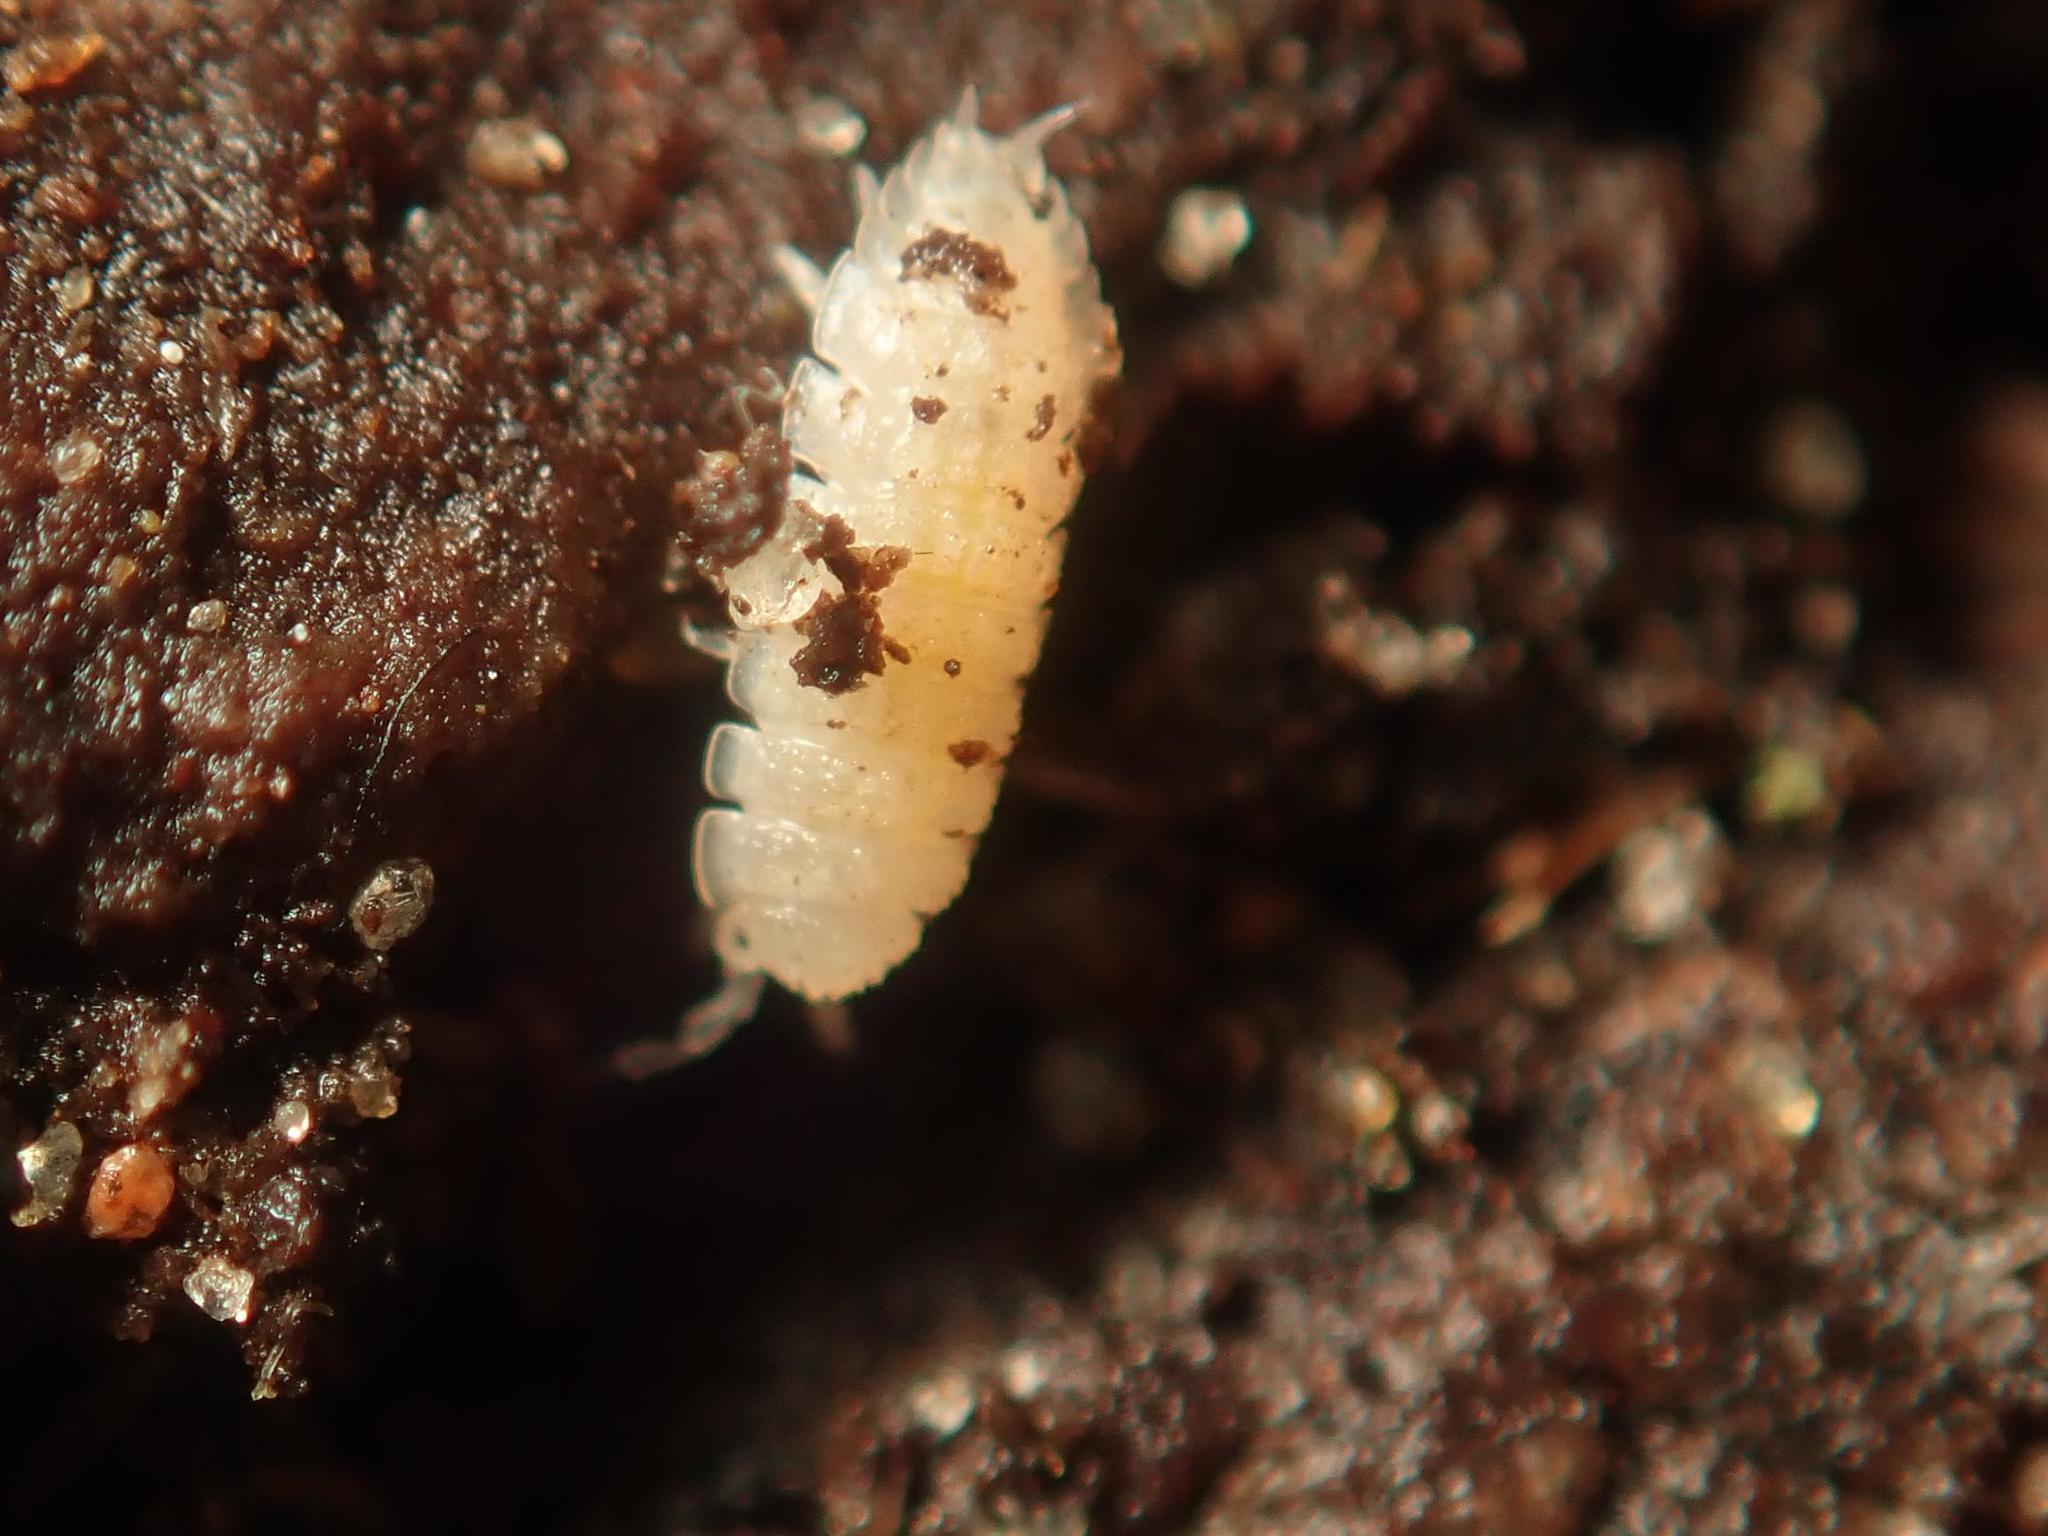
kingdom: Animalia
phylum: Arthropoda
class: Malacostraca
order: Isopoda
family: Trichoniscidae
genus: Haplophthalmus
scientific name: Haplophthalmus danicus
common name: Pillbug
